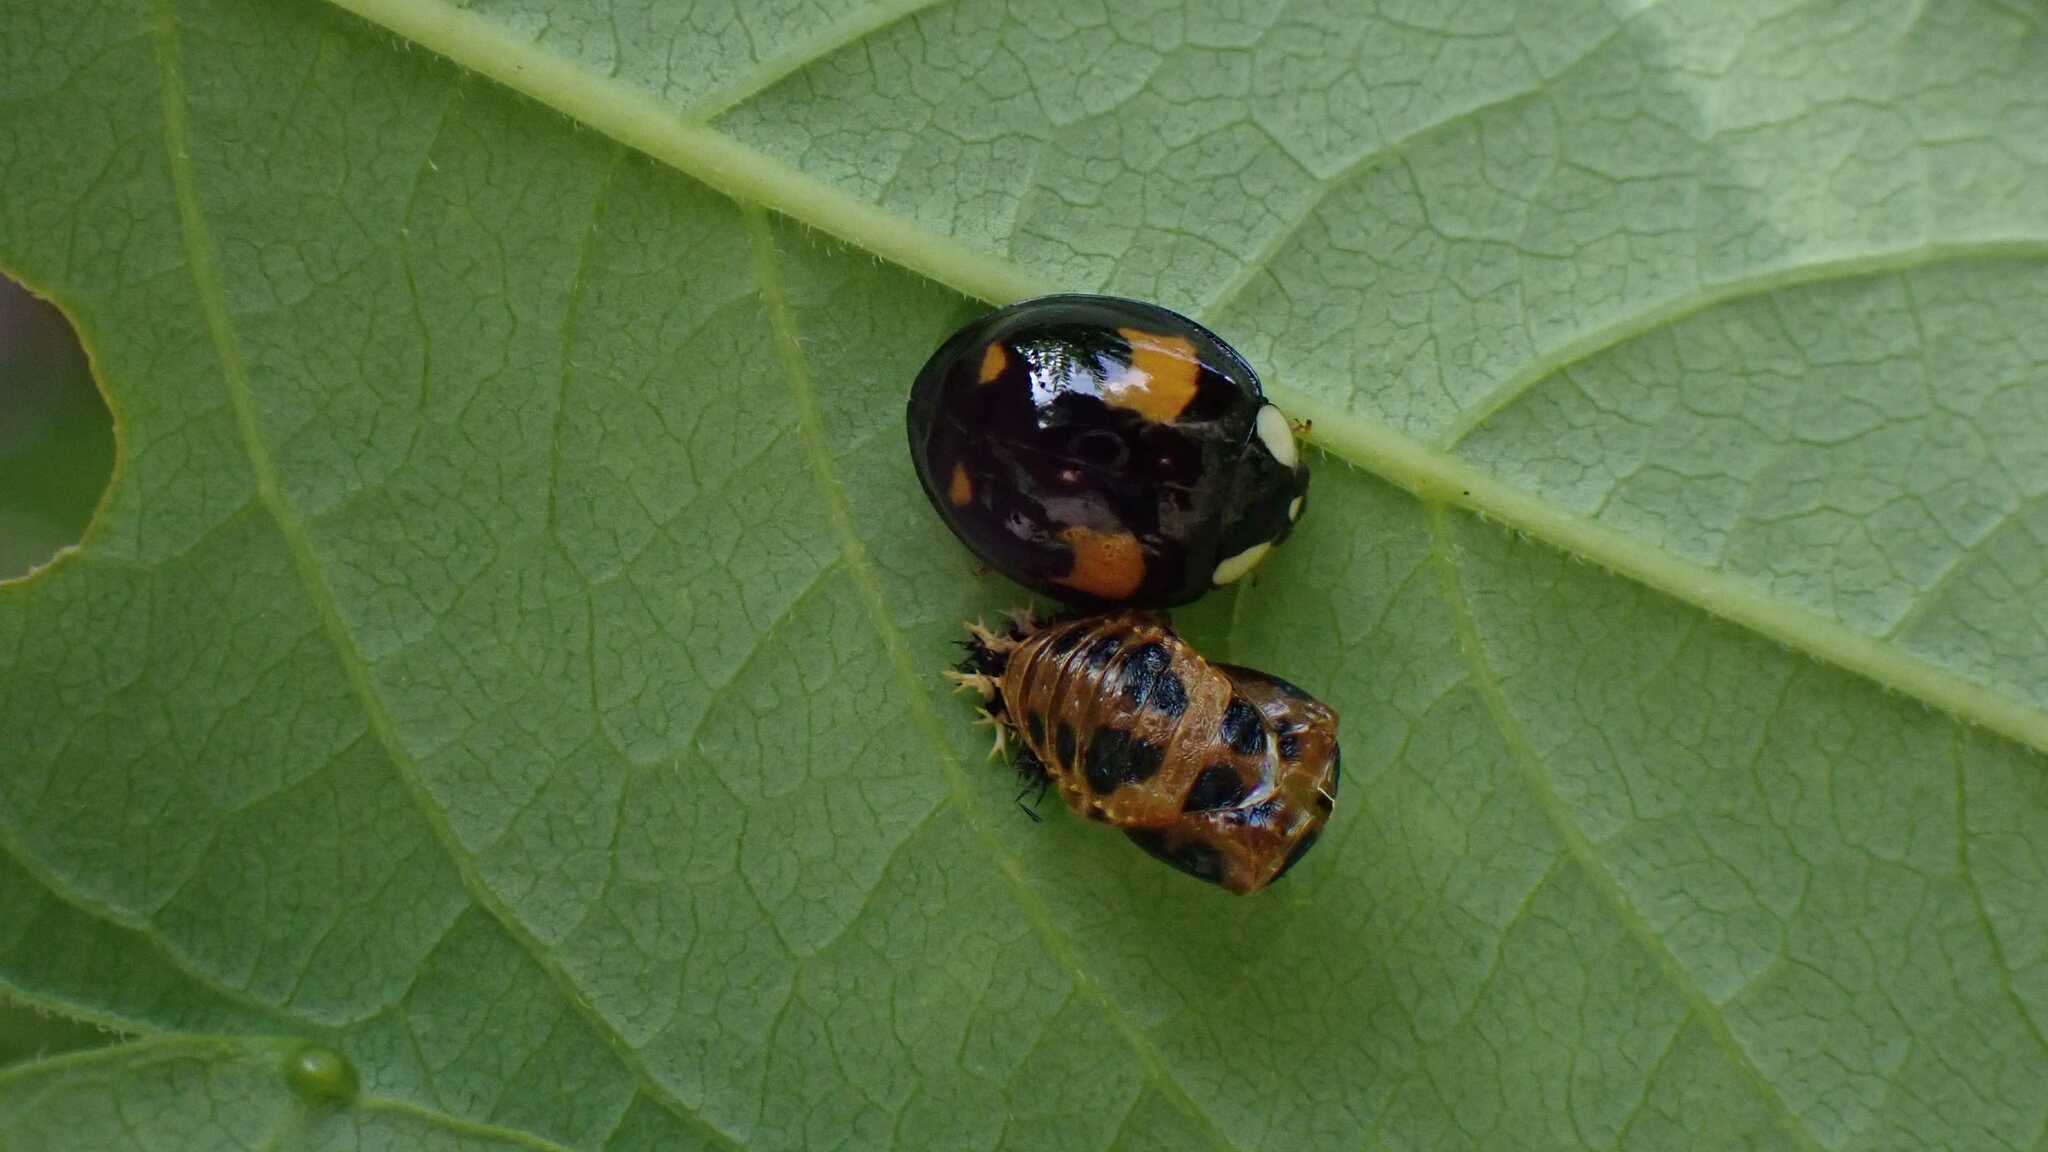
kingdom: Animalia
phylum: Arthropoda
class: Insecta
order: Coleoptera
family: Coccinellidae
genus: Harmonia
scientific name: Harmonia axyridis
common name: Harlequin ladybird
